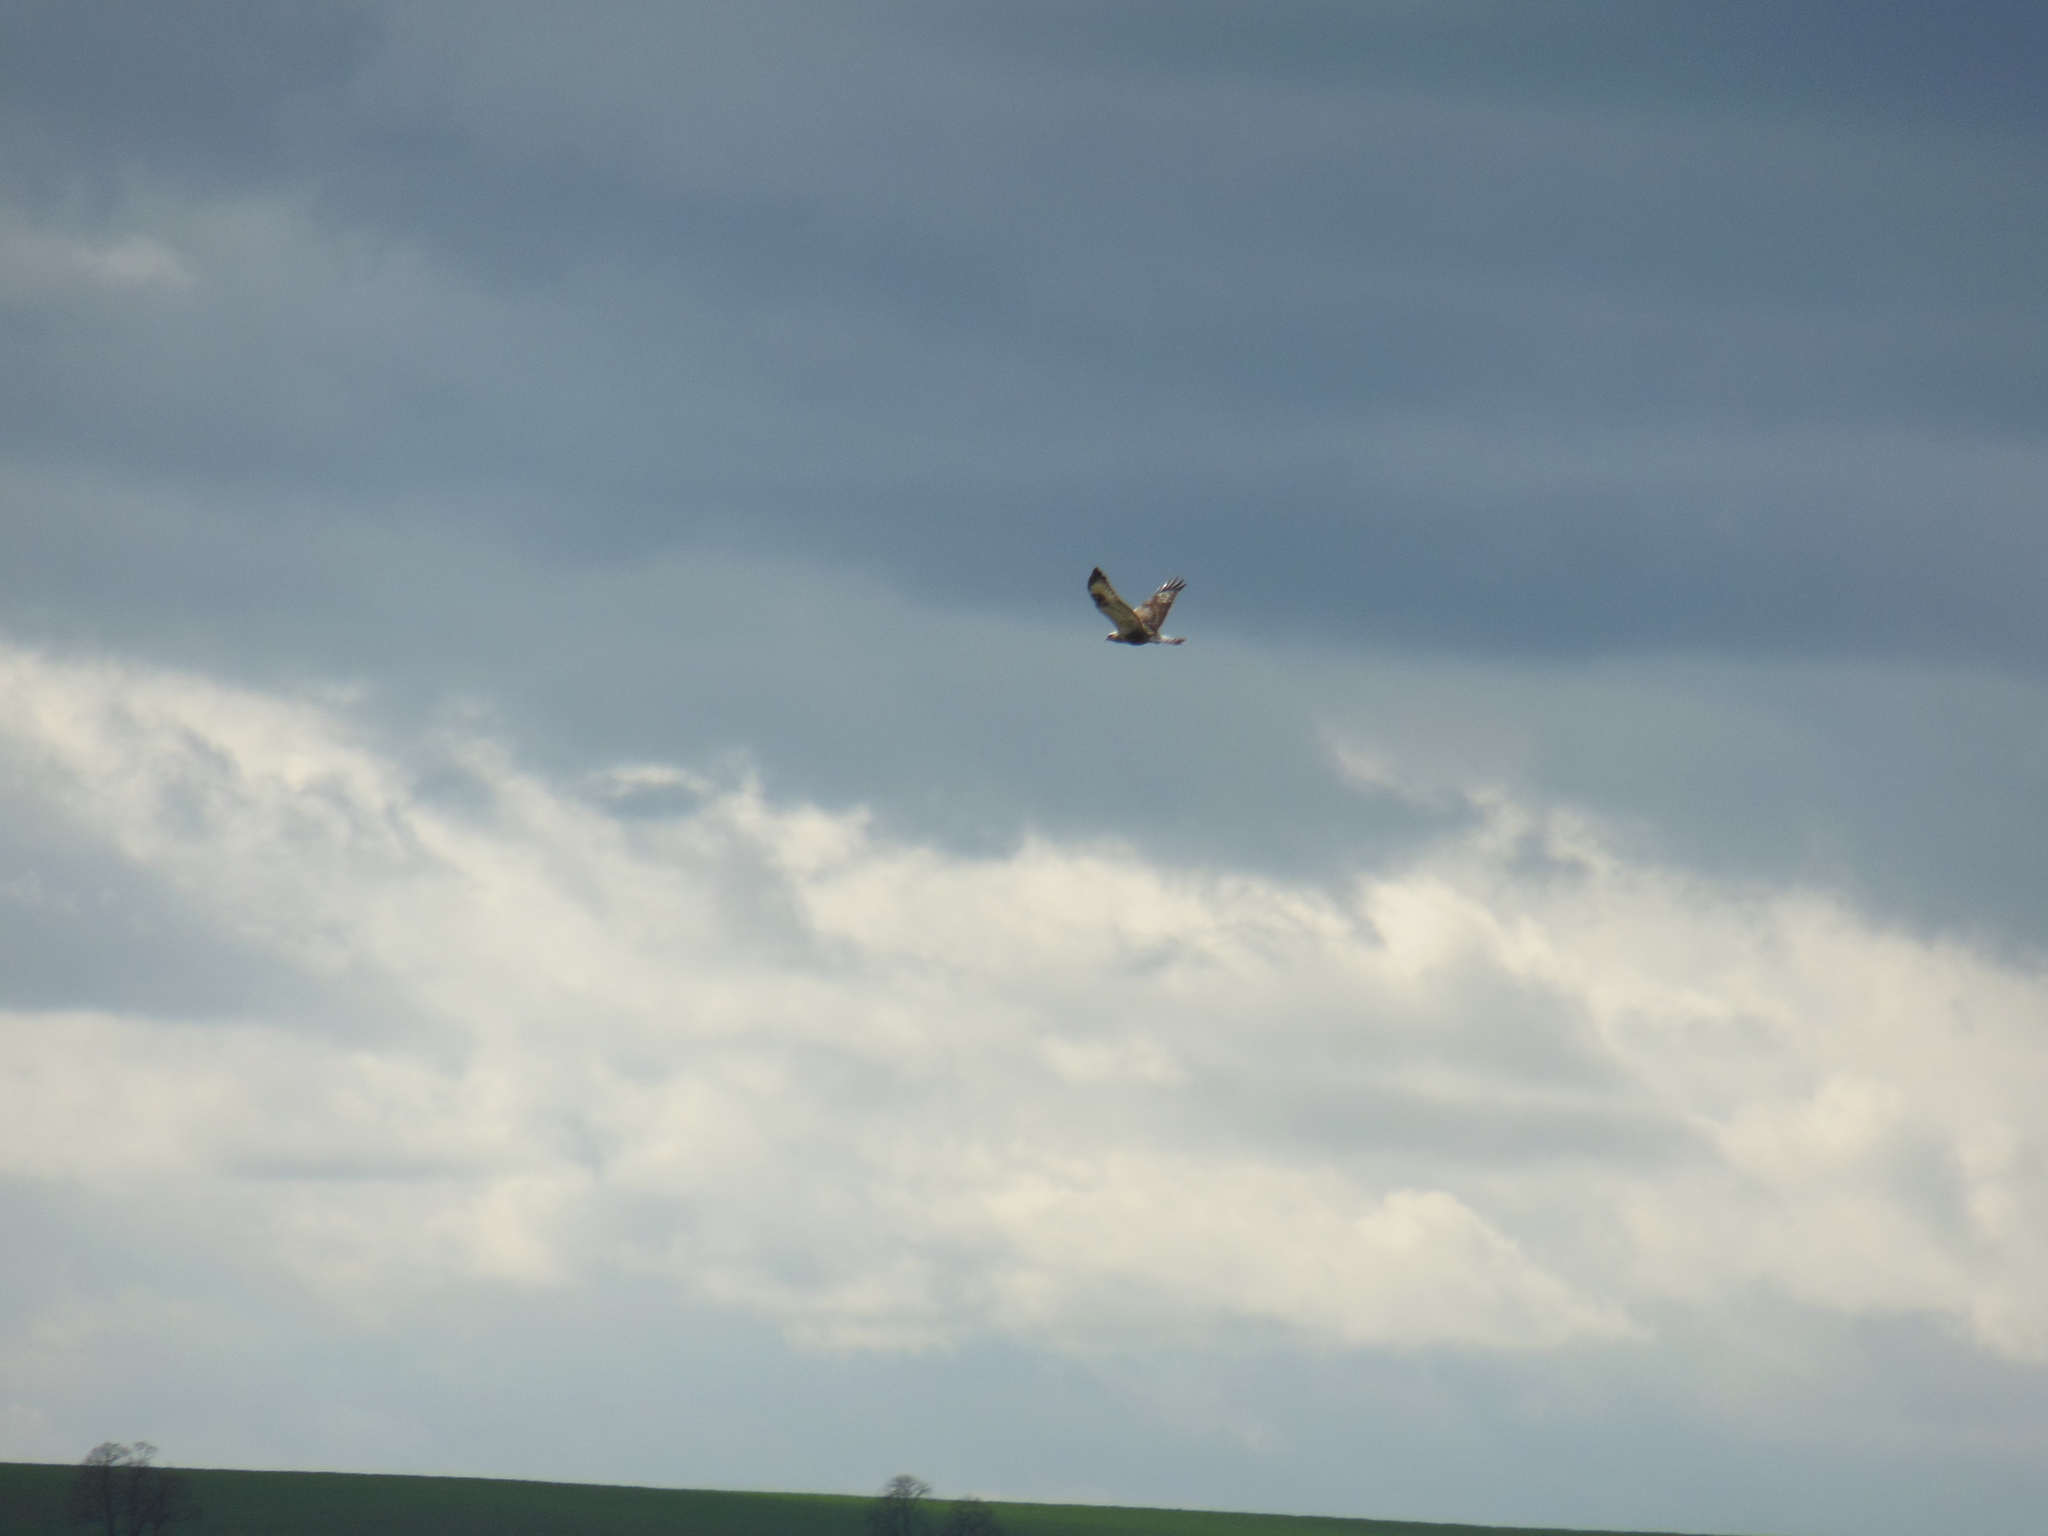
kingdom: Animalia
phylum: Chordata
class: Aves
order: Accipitriformes
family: Accipitridae
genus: Buteo
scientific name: Buteo lagopus
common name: Rough-legged buzzard
